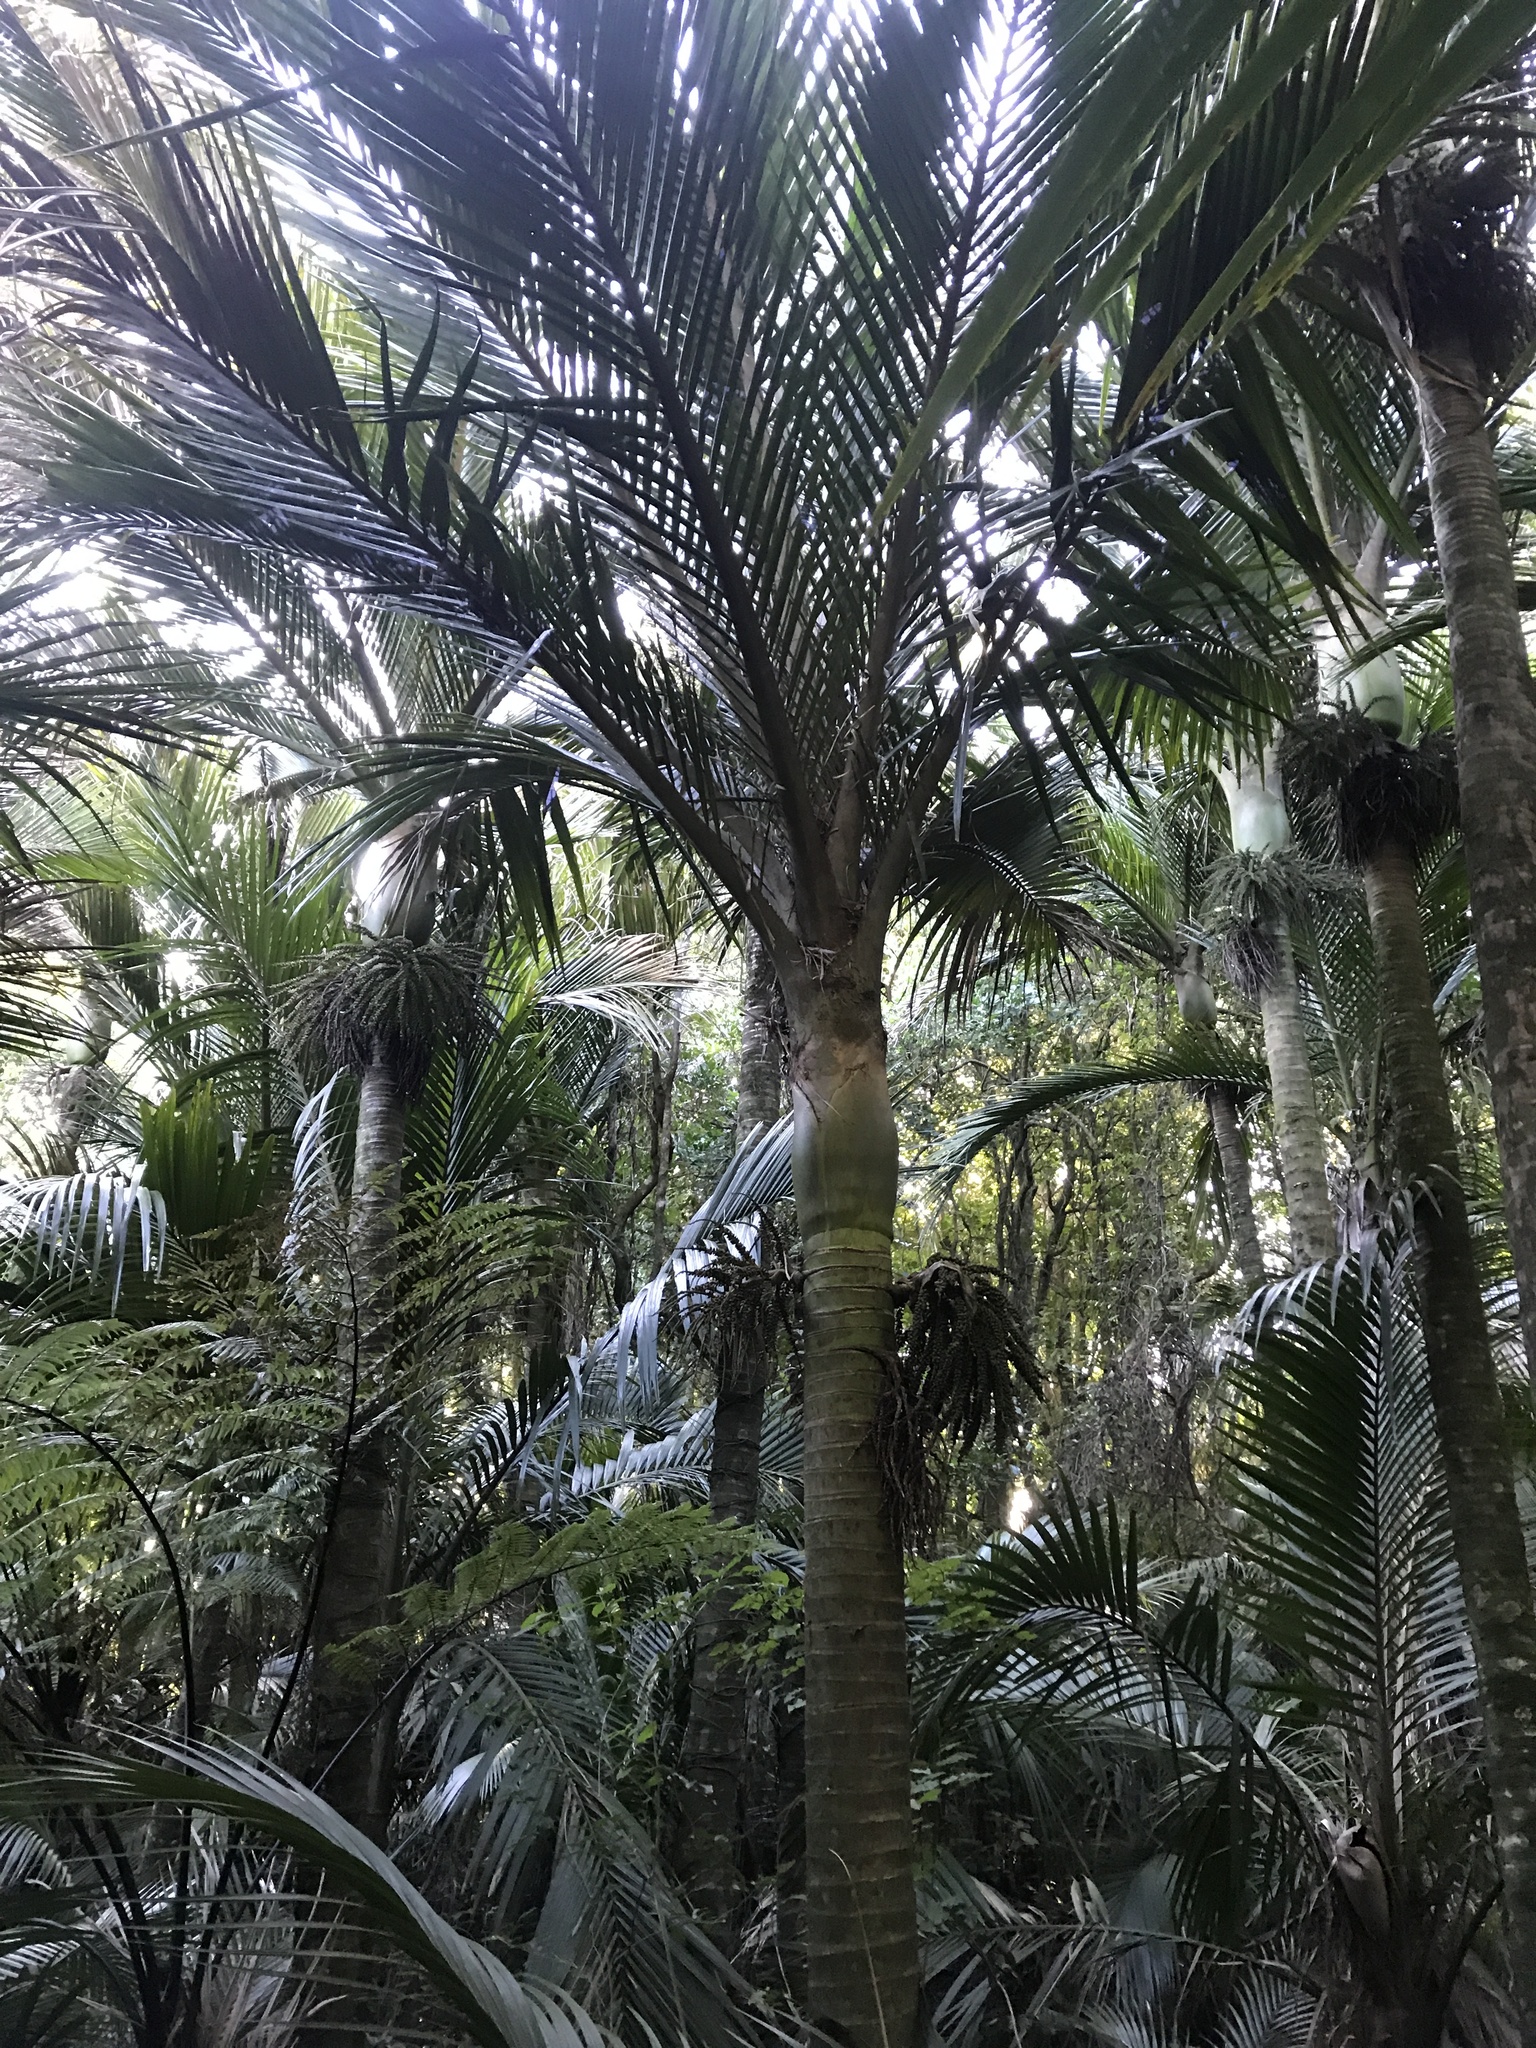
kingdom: Plantae
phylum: Tracheophyta
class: Liliopsida
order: Arecales
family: Arecaceae
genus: Rhopalostylis
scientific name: Rhopalostylis sapida
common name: Feather-duster palm
